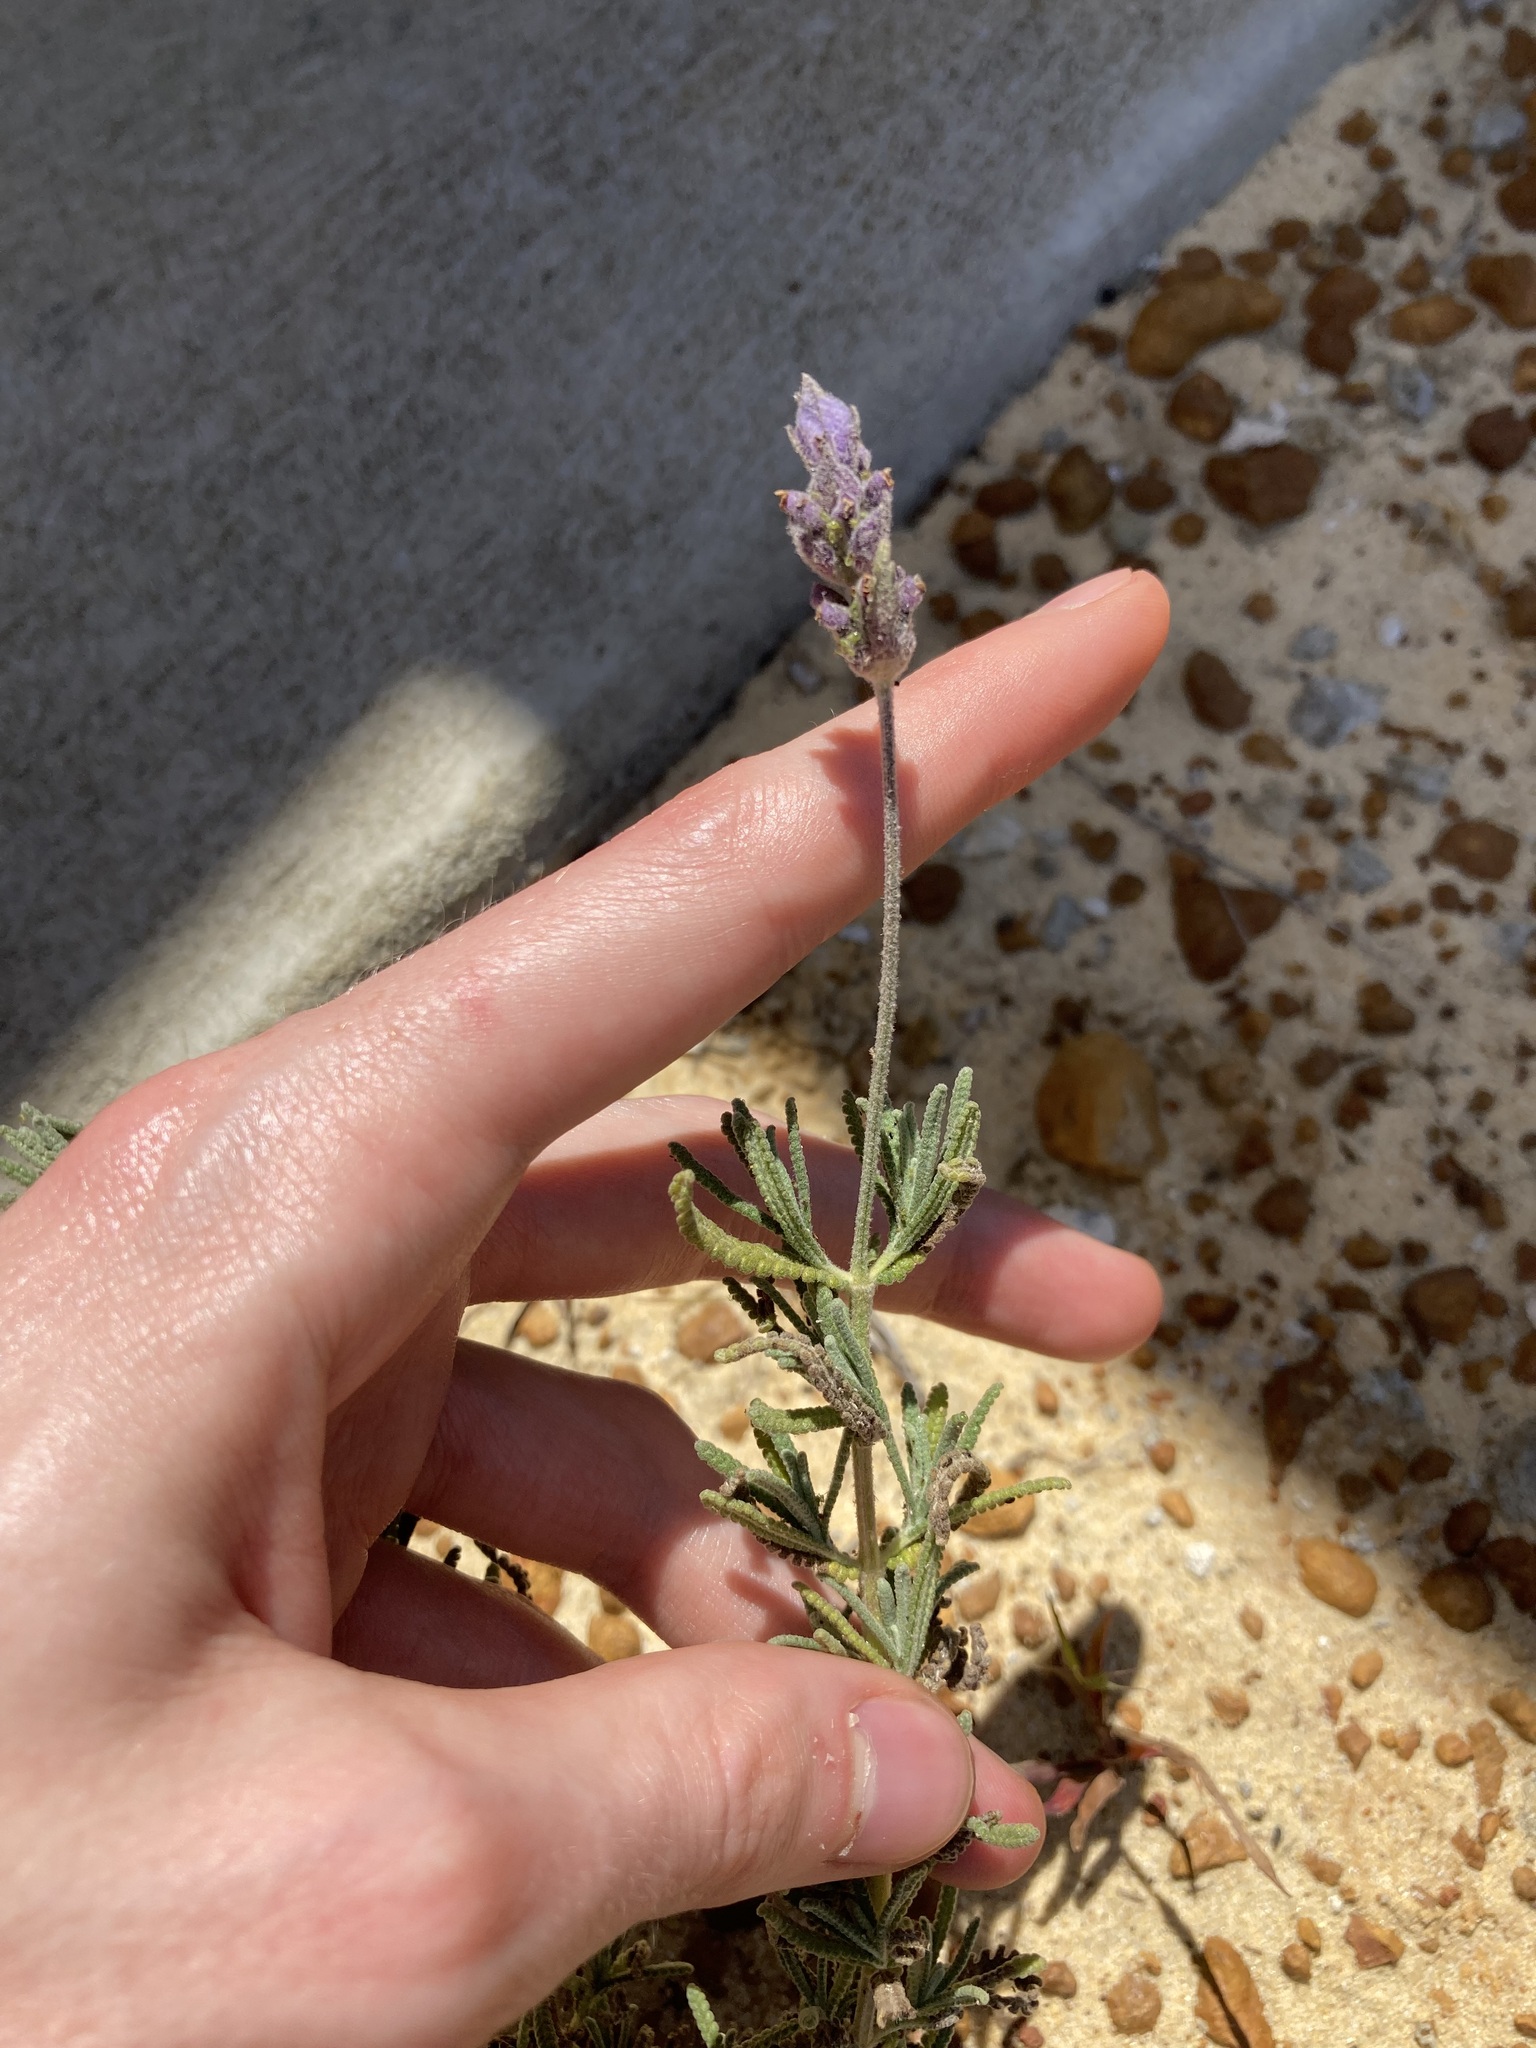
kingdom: Plantae
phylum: Tracheophyta
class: Magnoliopsida
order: Lamiales
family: Lamiaceae
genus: Lavandula
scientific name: Lavandula dentata
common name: French lavender
